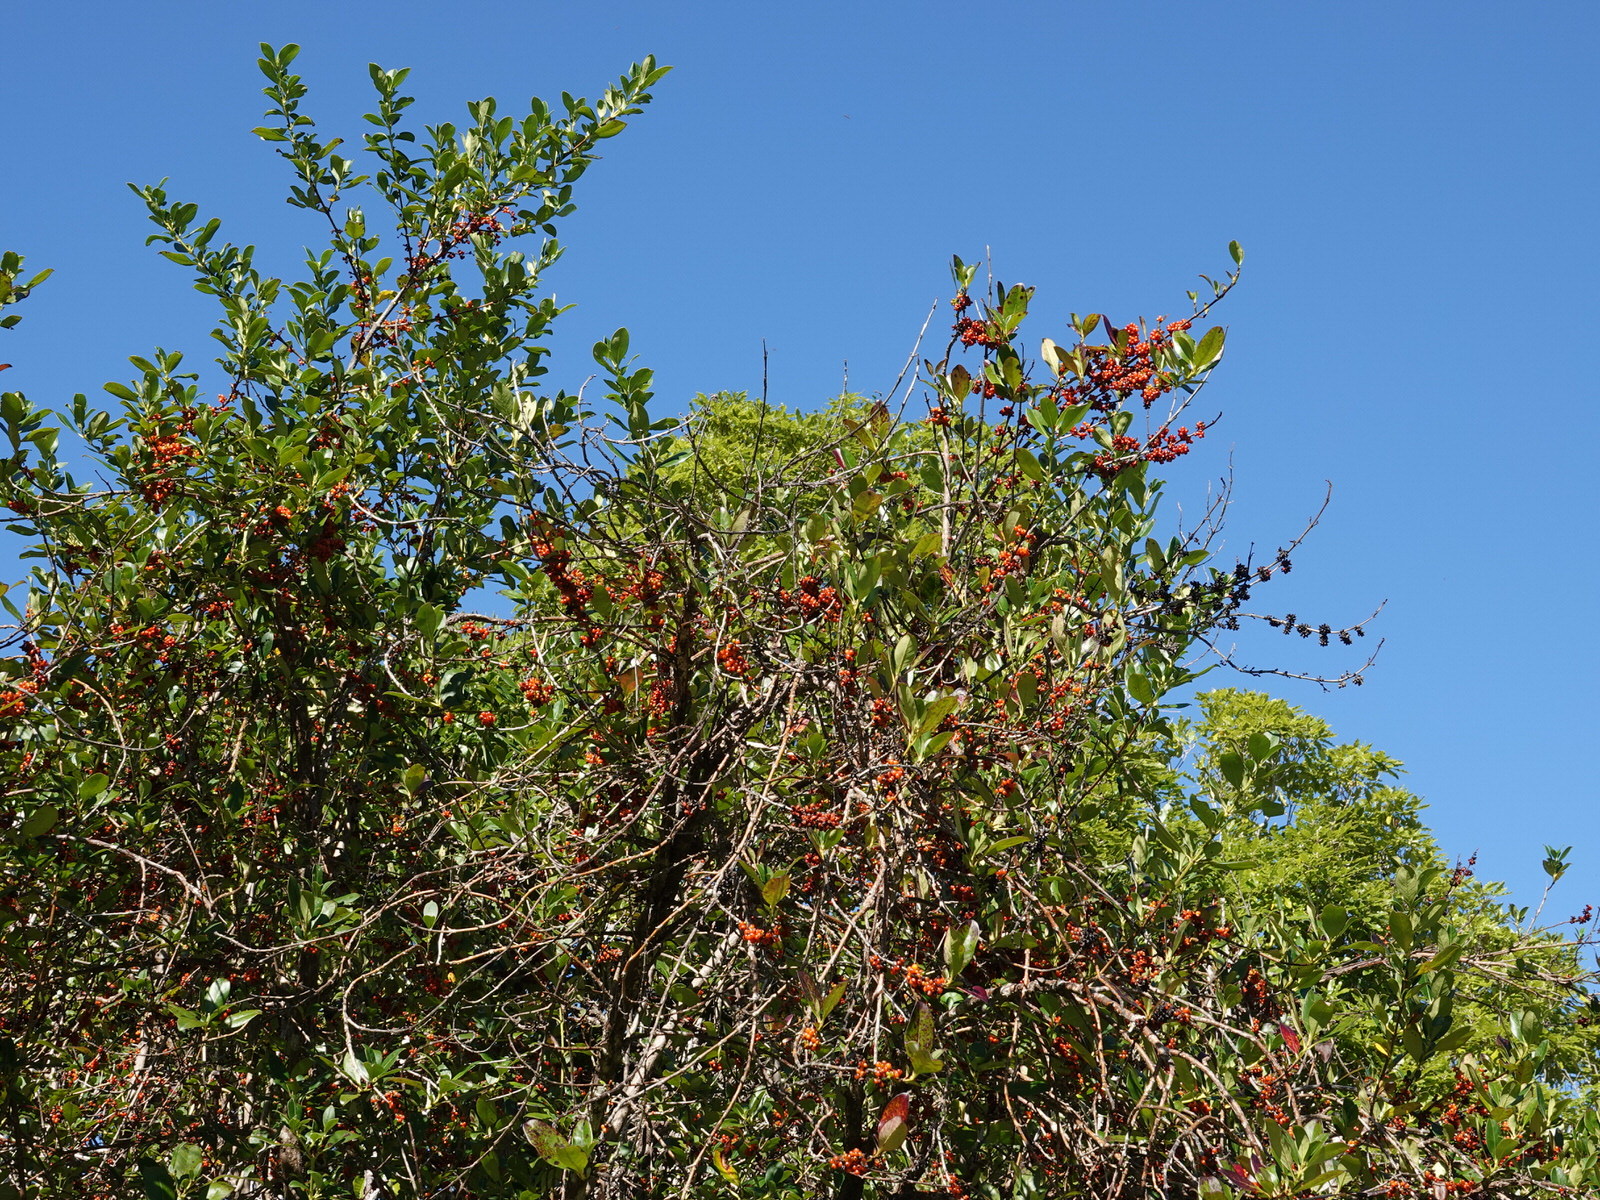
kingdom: Plantae
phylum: Tracheophyta
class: Magnoliopsida
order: Gentianales
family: Rubiaceae
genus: Coprosma
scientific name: Coprosma robusta
